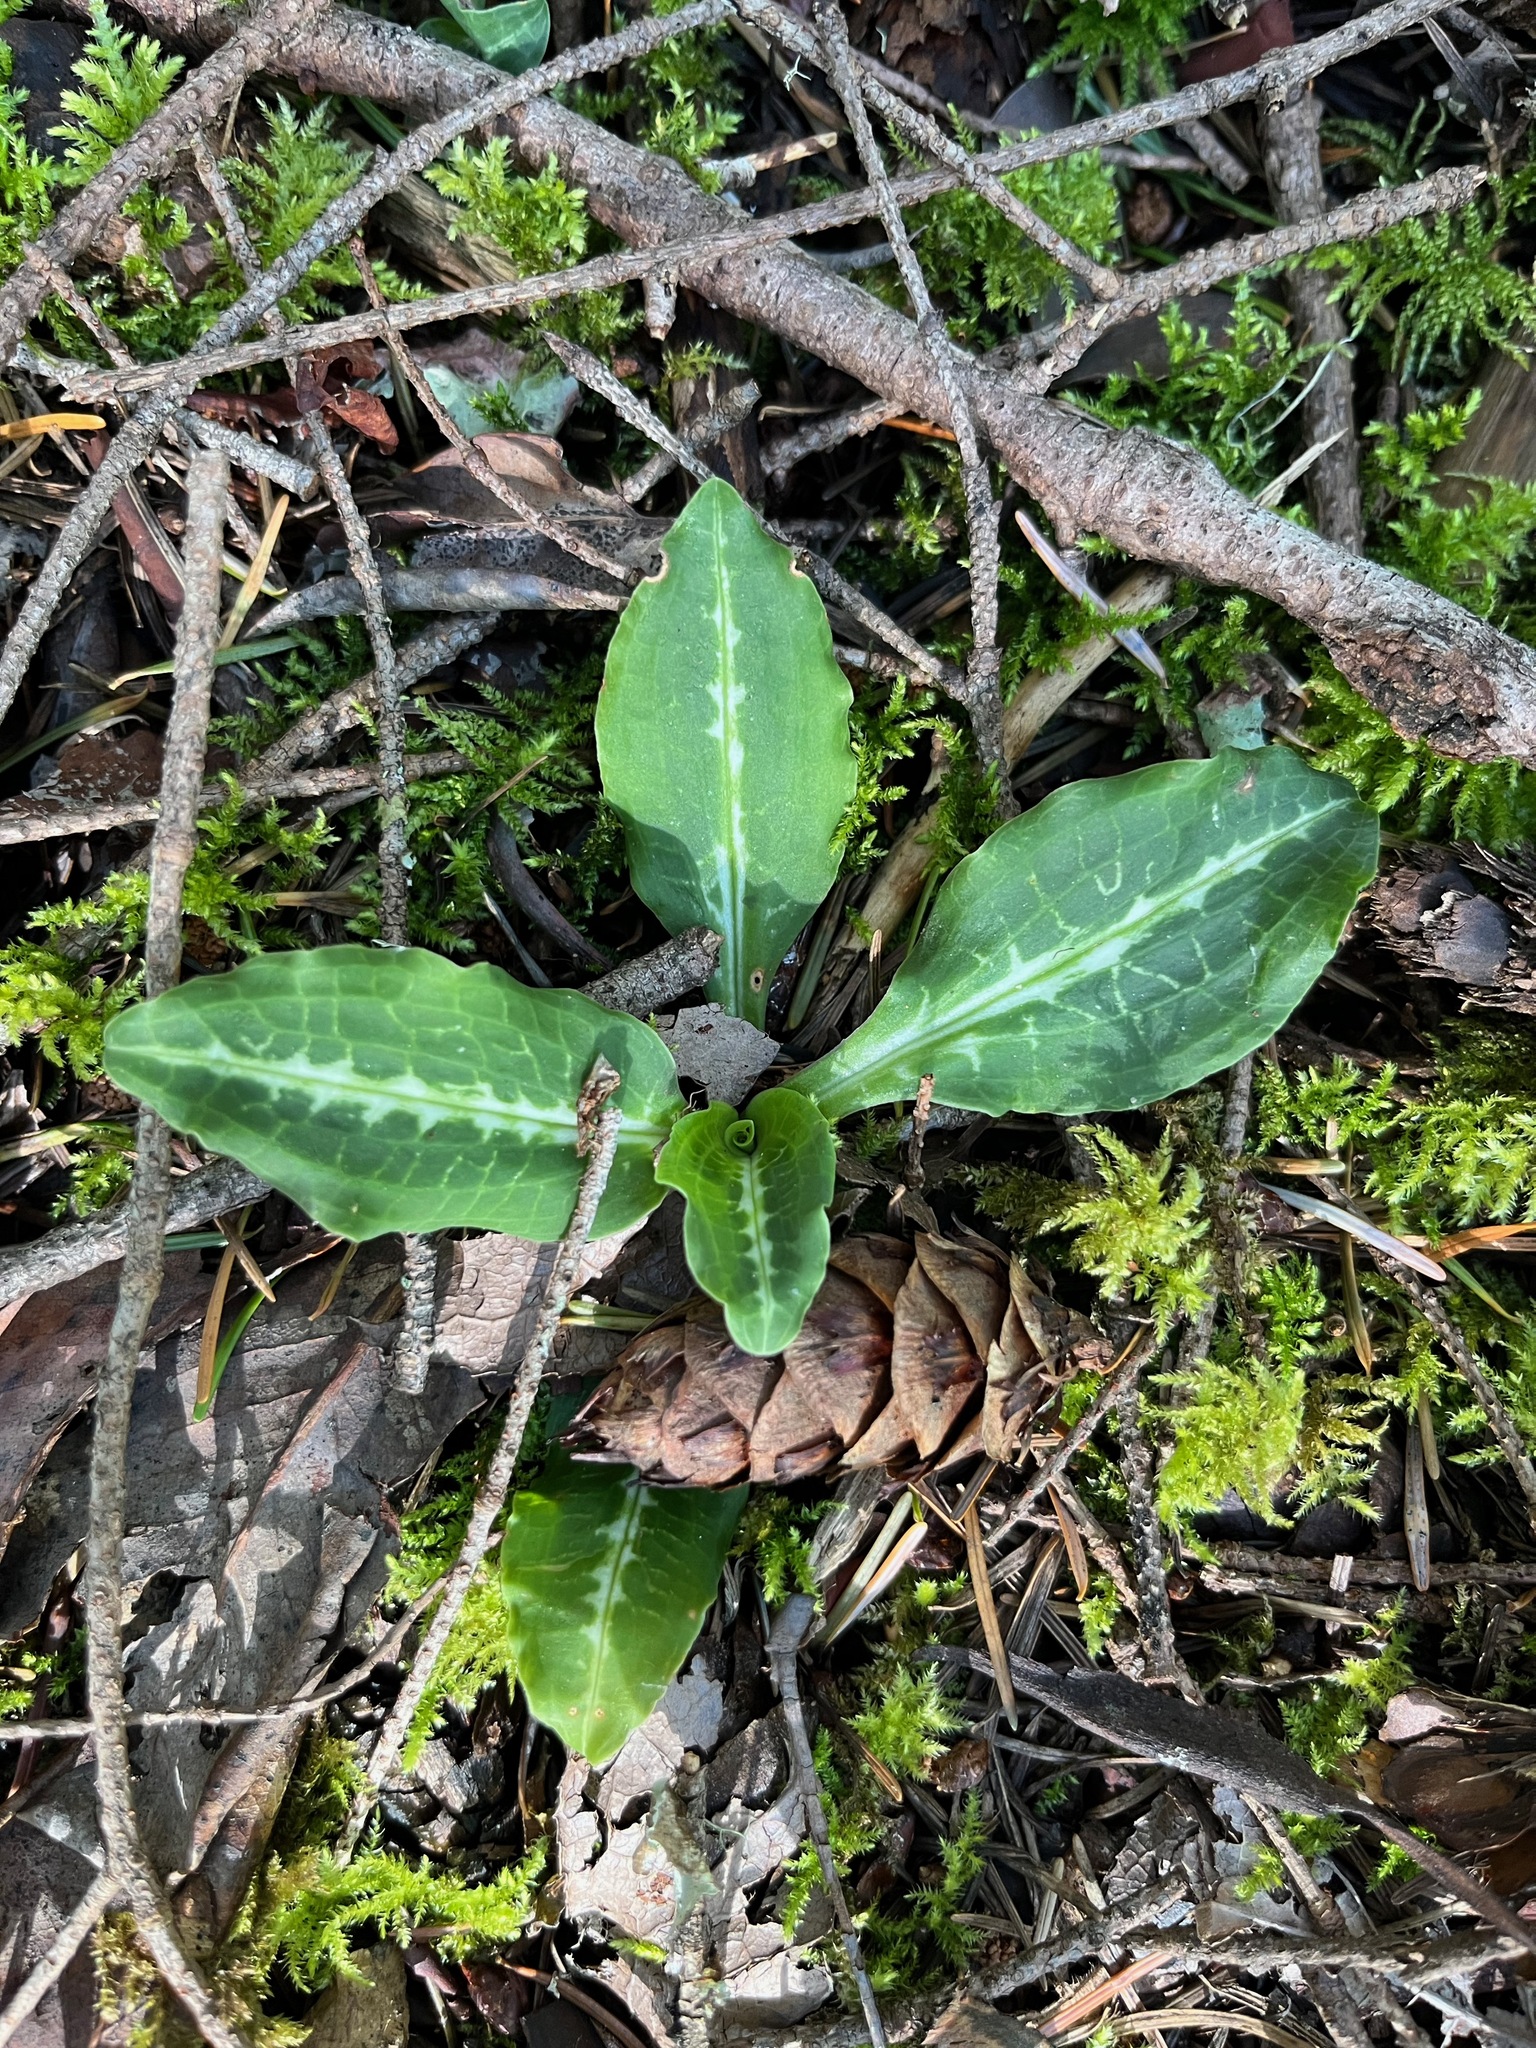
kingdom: Plantae
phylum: Tracheophyta
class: Liliopsida
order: Asparagales
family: Orchidaceae
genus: Goodyera
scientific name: Goodyera oblongifolia
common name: Giant rattlesnake-plantain
